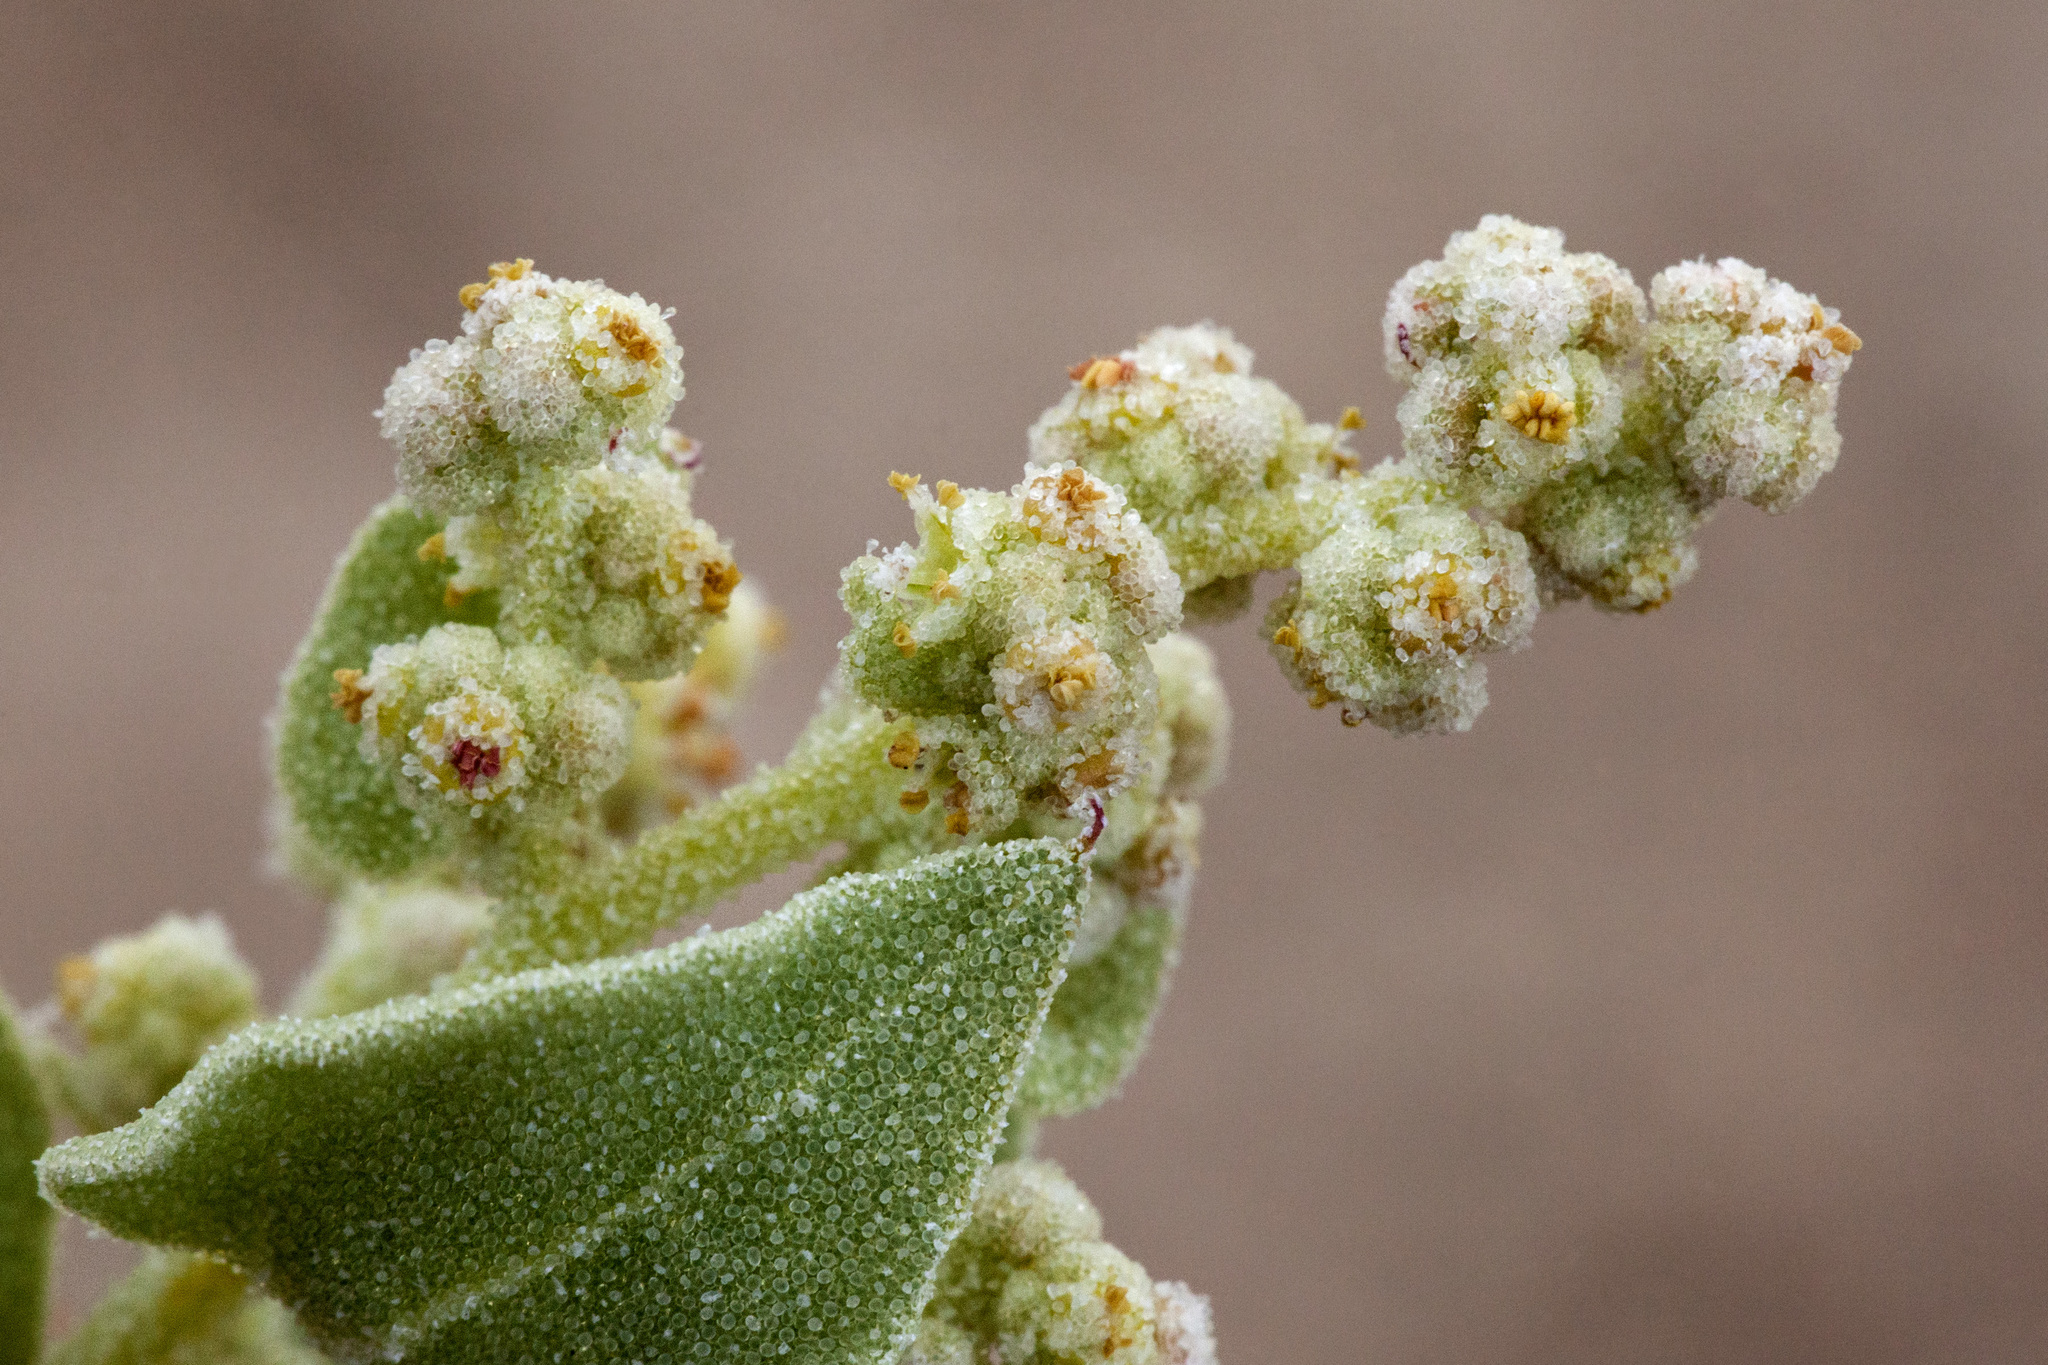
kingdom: Plantae
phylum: Tracheophyta
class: Magnoliopsida
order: Caryophyllales
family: Amaranthaceae
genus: Atriplex
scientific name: Atriplex saccaria
